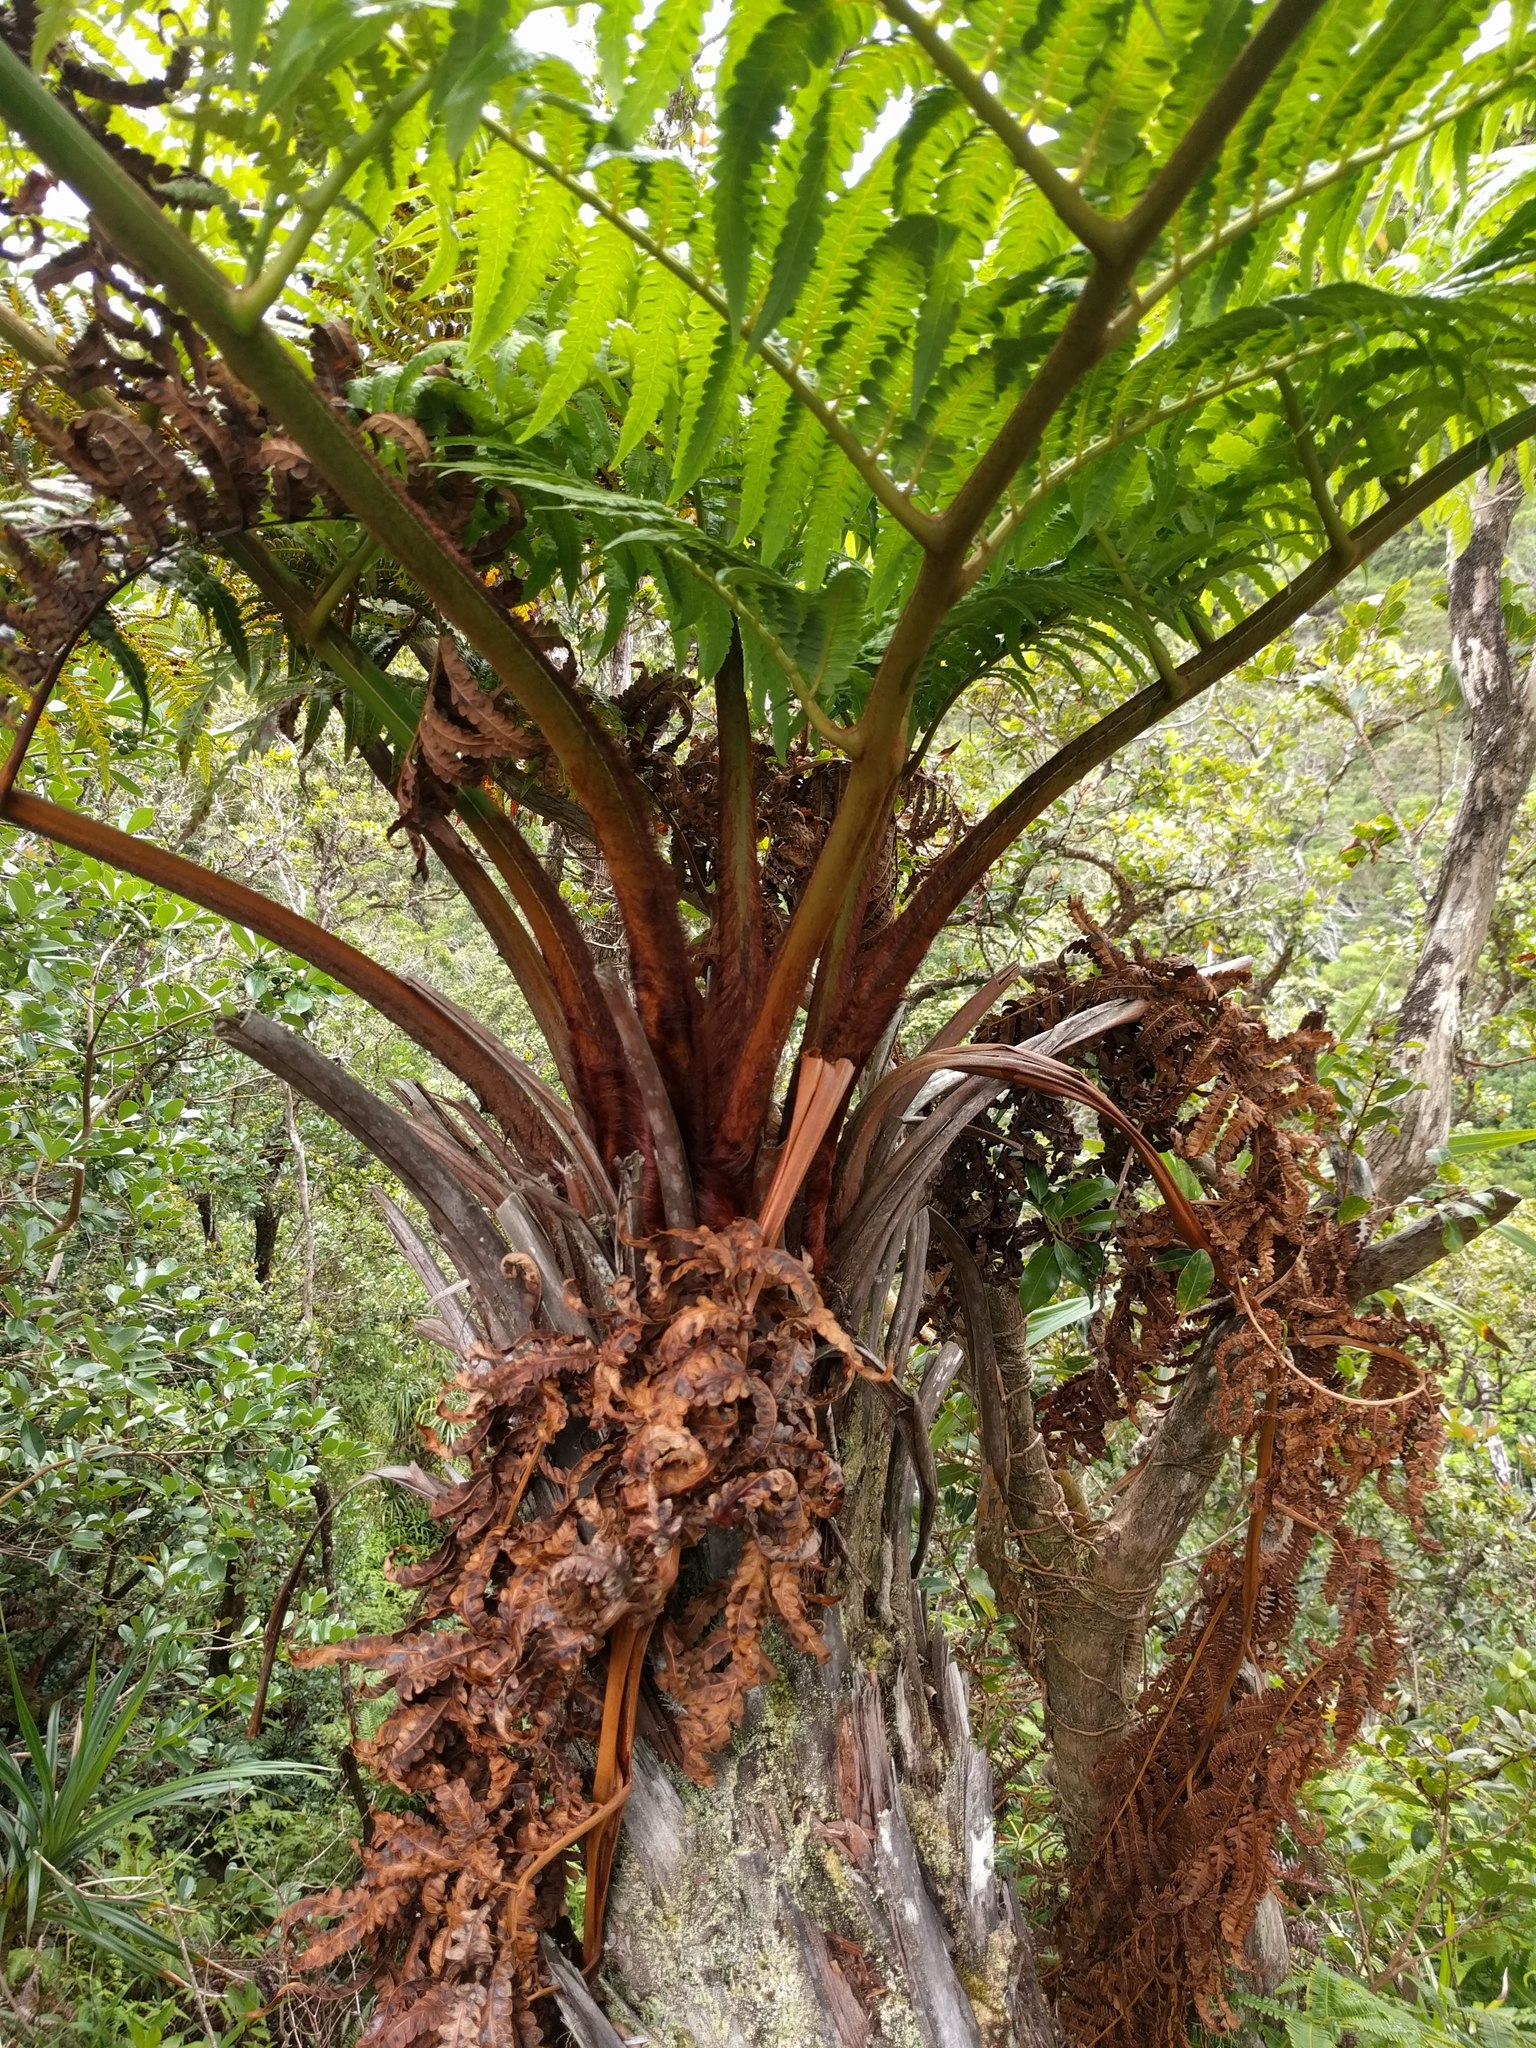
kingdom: Plantae
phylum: Tracheophyta
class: Polypodiopsida
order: Cyatheales
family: Cibotiaceae
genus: Cibotium
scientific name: Cibotium menziesii
